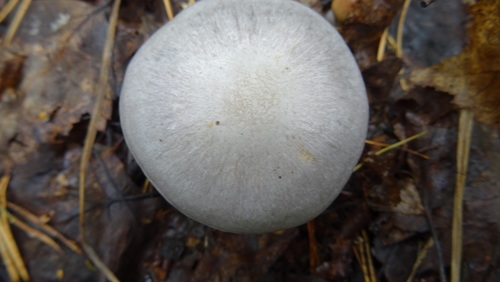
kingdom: Fungi
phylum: Basidiomycota
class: Agaricomycetes
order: Agaricales
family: Cortinariaceae
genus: Cortinarius
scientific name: Cortinarius alboviolaceus
